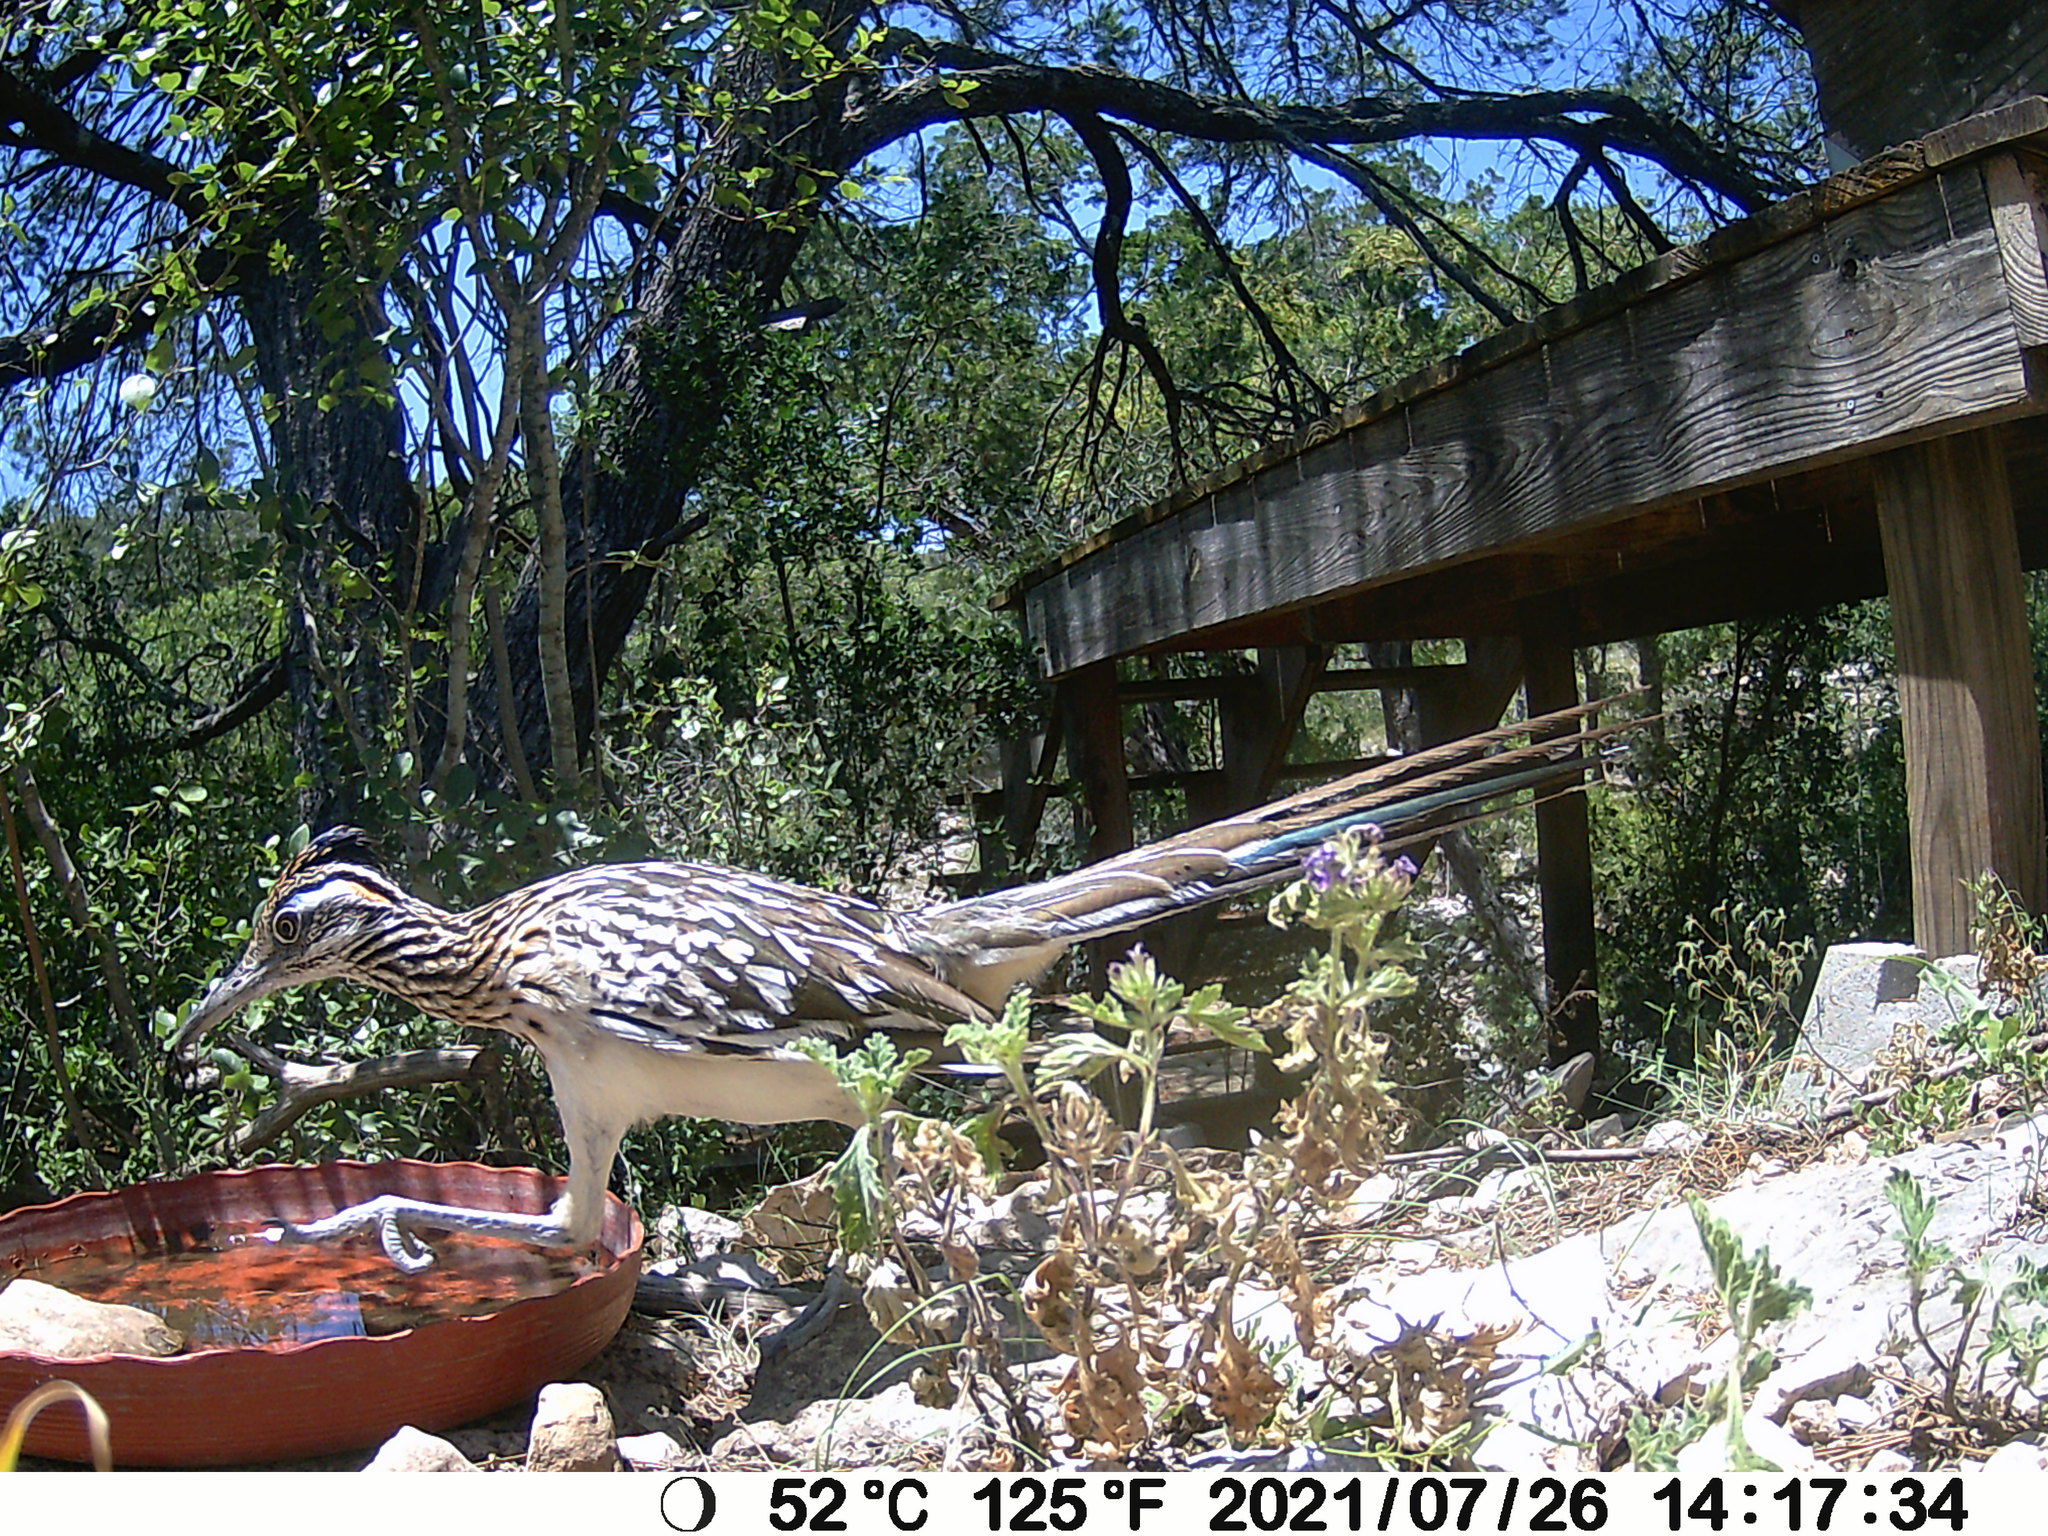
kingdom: Animalia
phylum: Chordata
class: Aves
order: Cuculiformes
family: Cuculidae
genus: Geococcyx
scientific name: Geococcyx californianus
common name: Greater roadrunner
